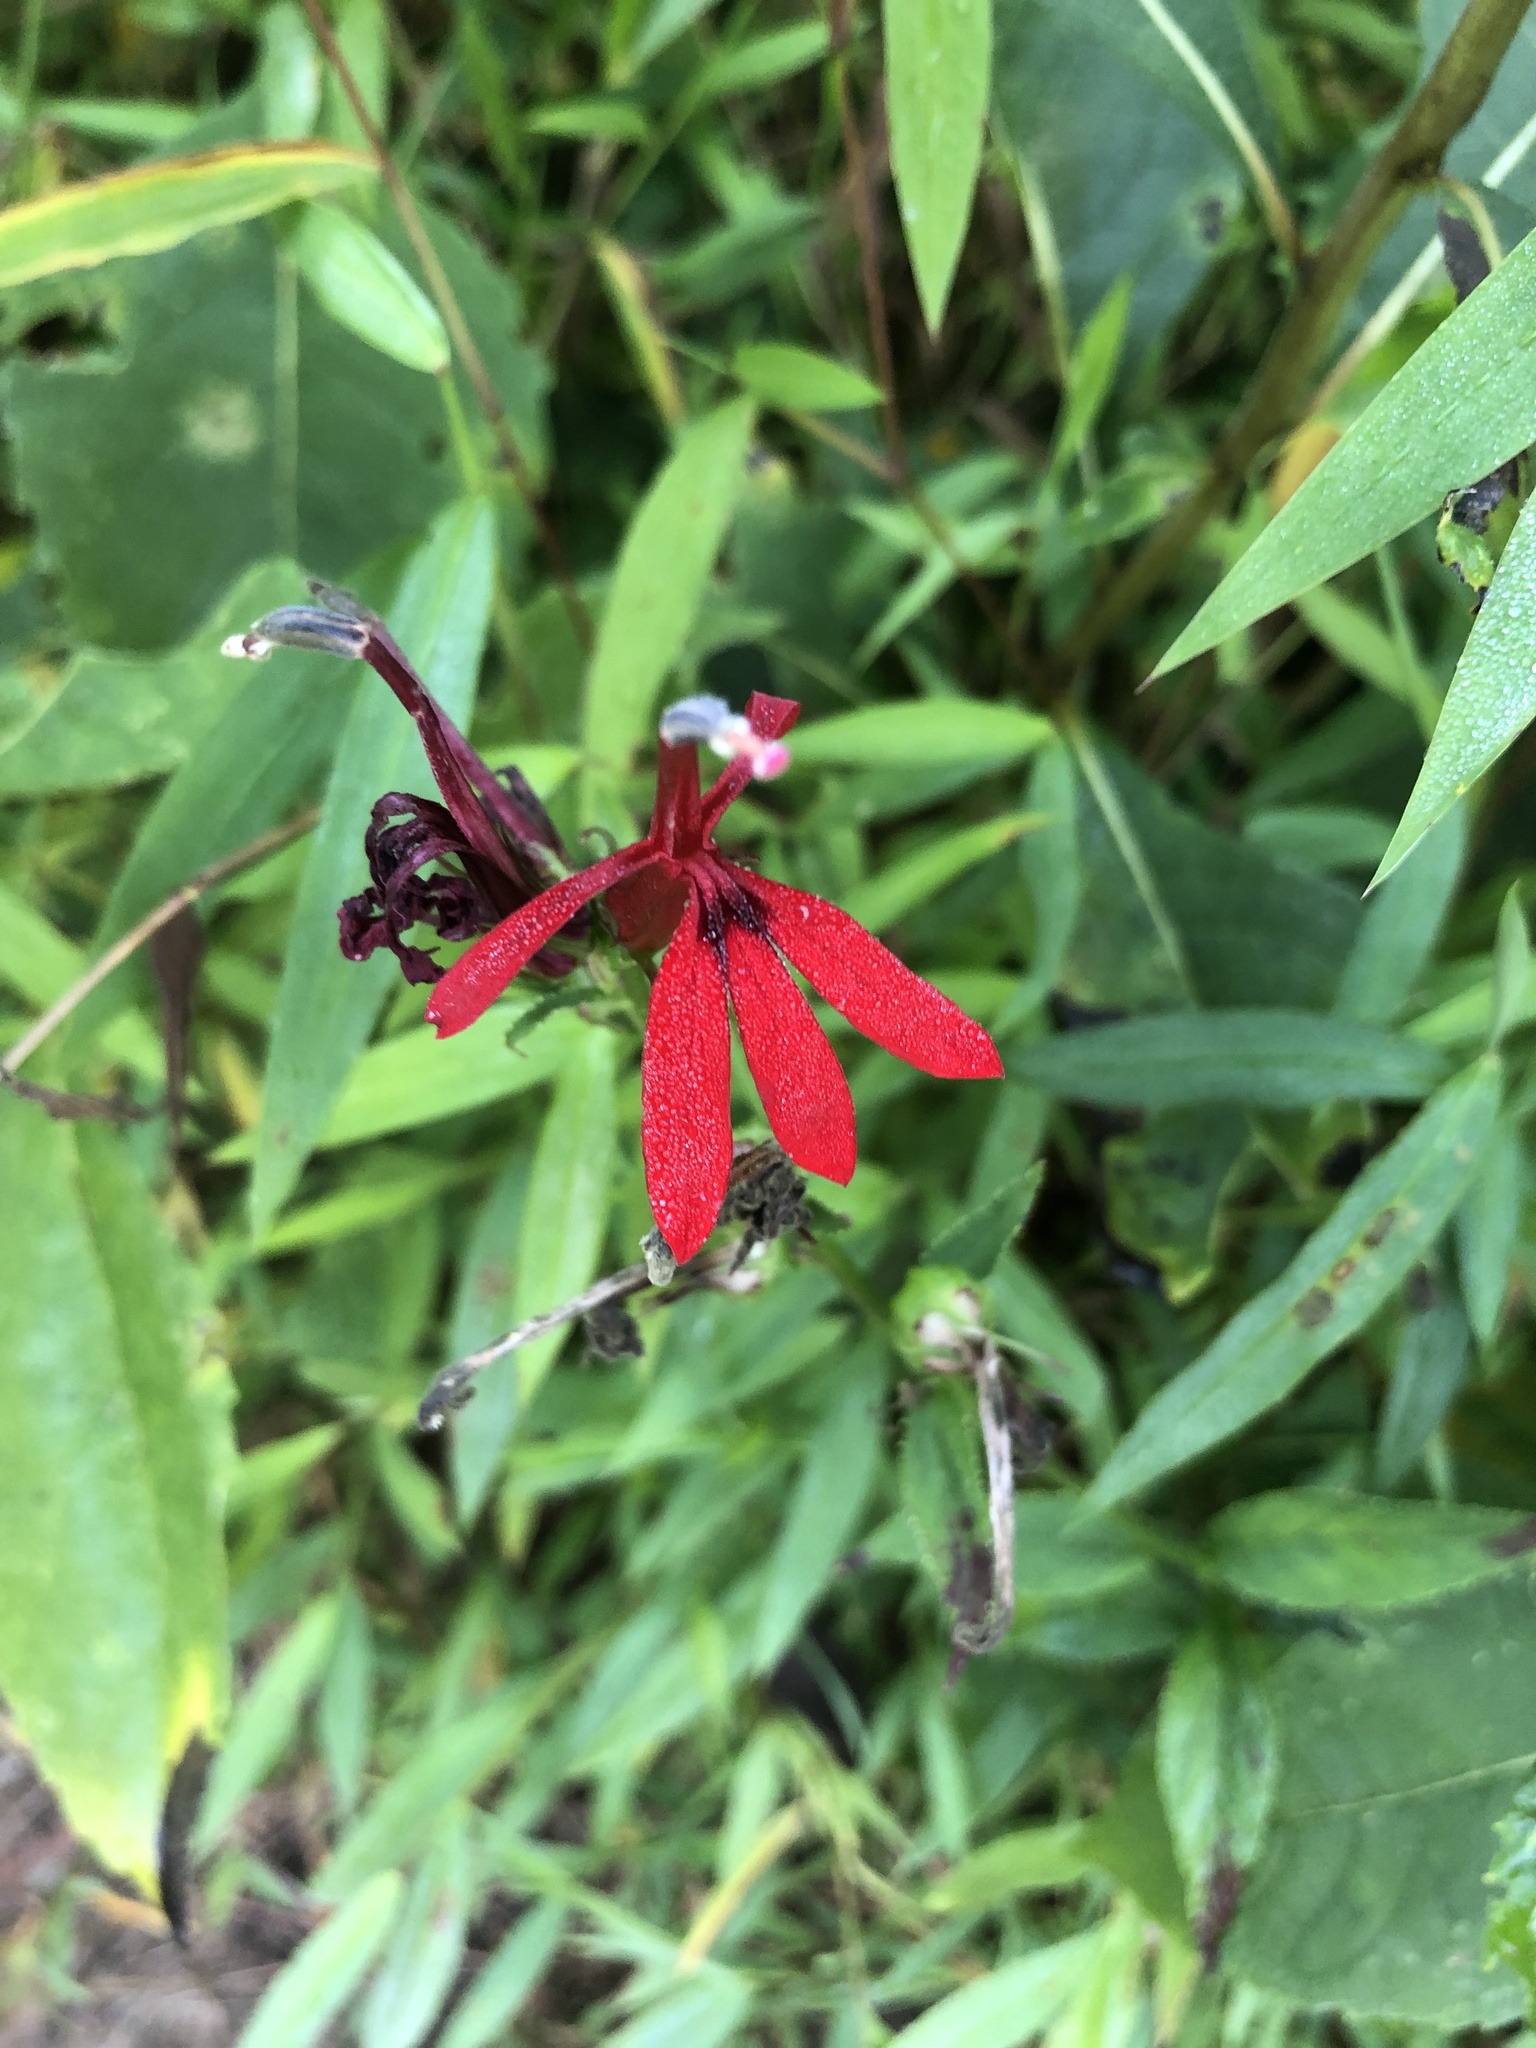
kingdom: Plantae
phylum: Tracheophyta
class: Magnoliopsida
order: Asterales
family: Campanulaceae
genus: Lobelia
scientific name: Lobelia cardinalis
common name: Cardinal flower
